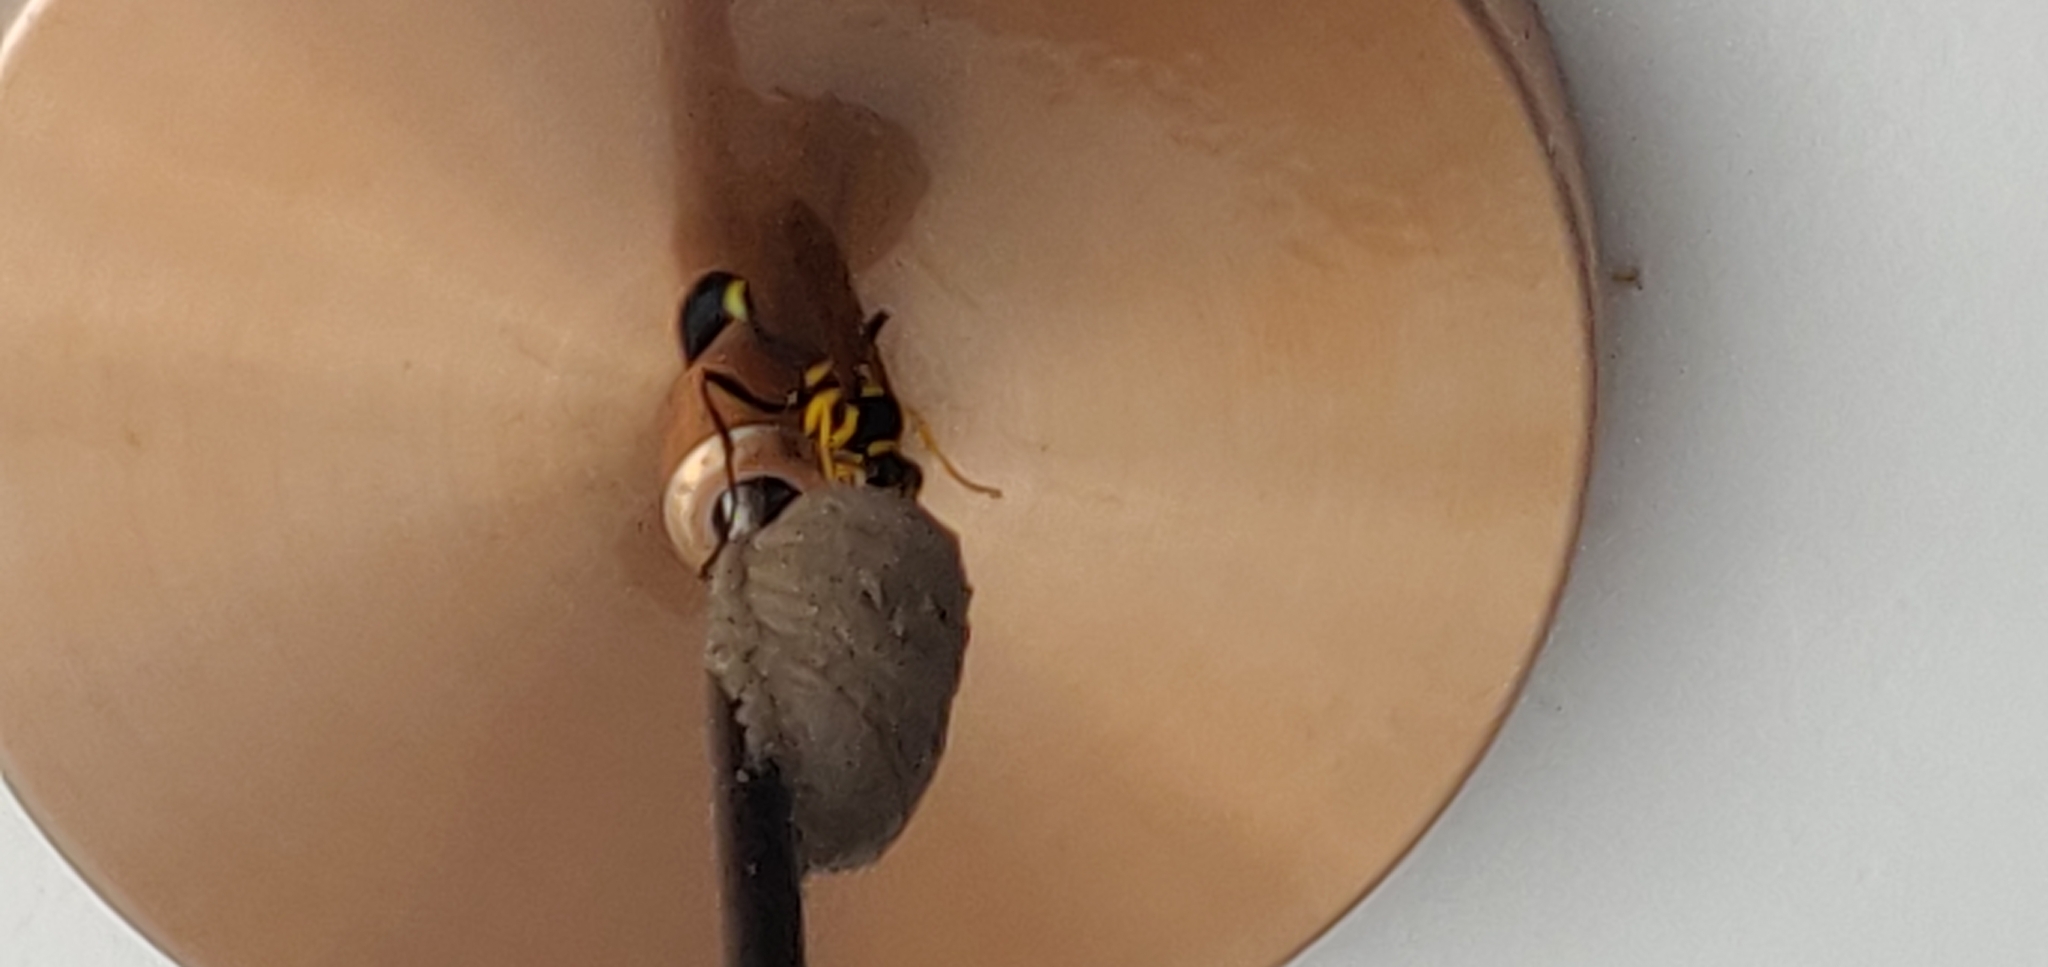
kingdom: Animalia
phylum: Arthropoda
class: Insecta
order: Hymenoptera
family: Sphecidae
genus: Sceliphron
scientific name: Sceliphron fistularium
